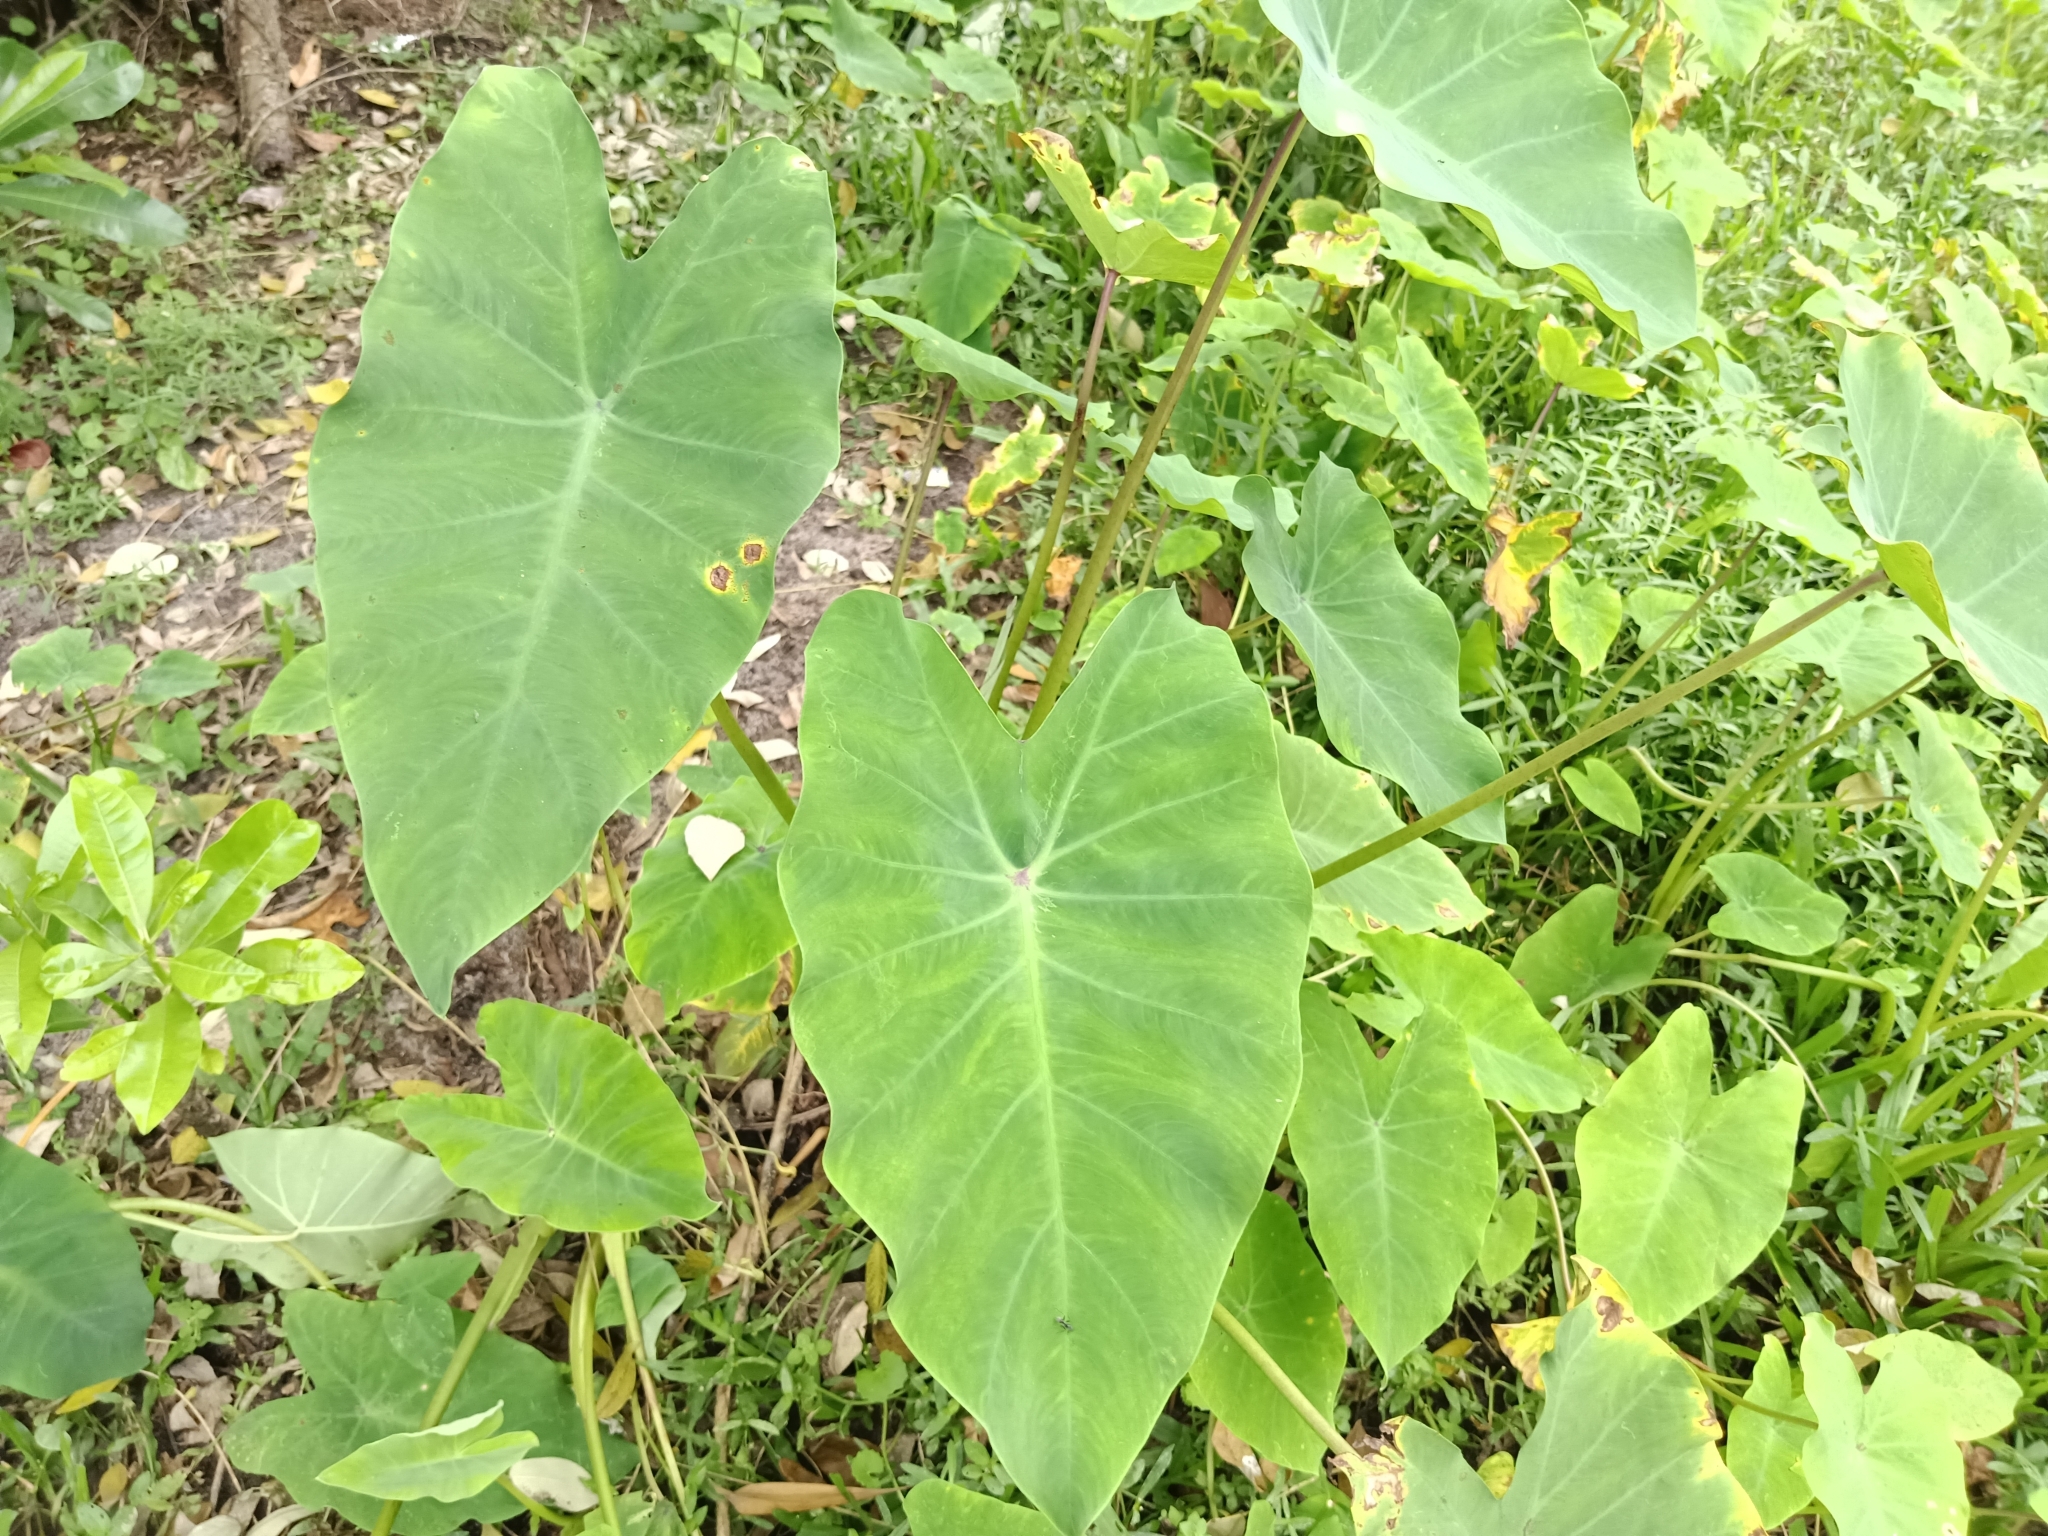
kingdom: Plantae
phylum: Tracheophyta
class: Liliopsida
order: Alismatales
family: Araceae
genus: Colocasia
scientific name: Colocasia esculenta
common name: Taro
